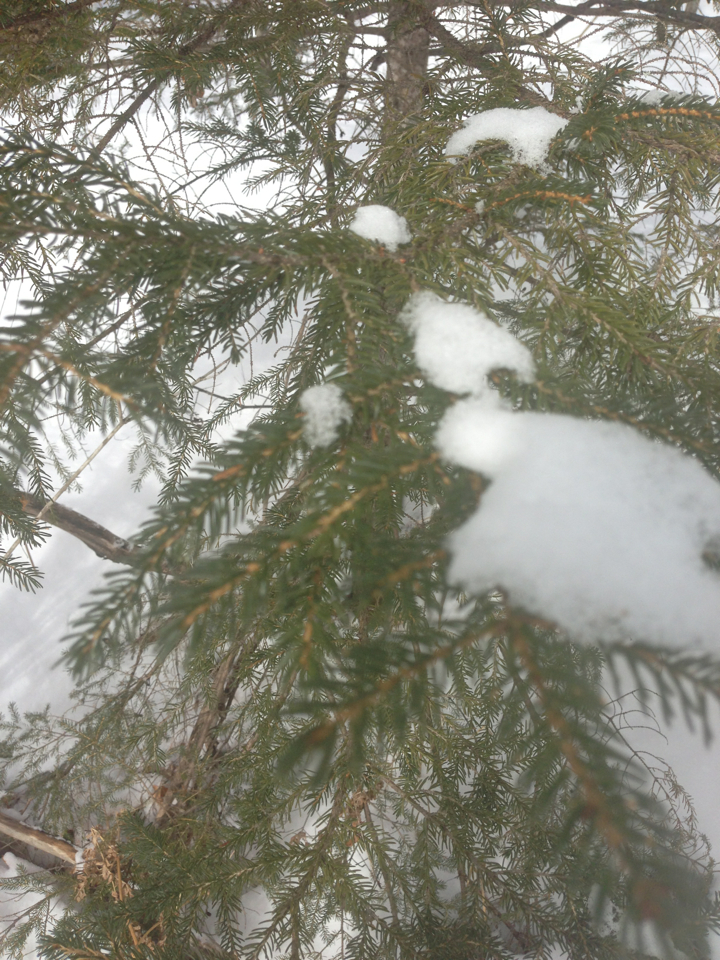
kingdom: Plantae
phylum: Tracheophyta
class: Pinopsida
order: Pinales
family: Pinaceae
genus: Picea
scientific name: Picea rubens
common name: Red spruce
